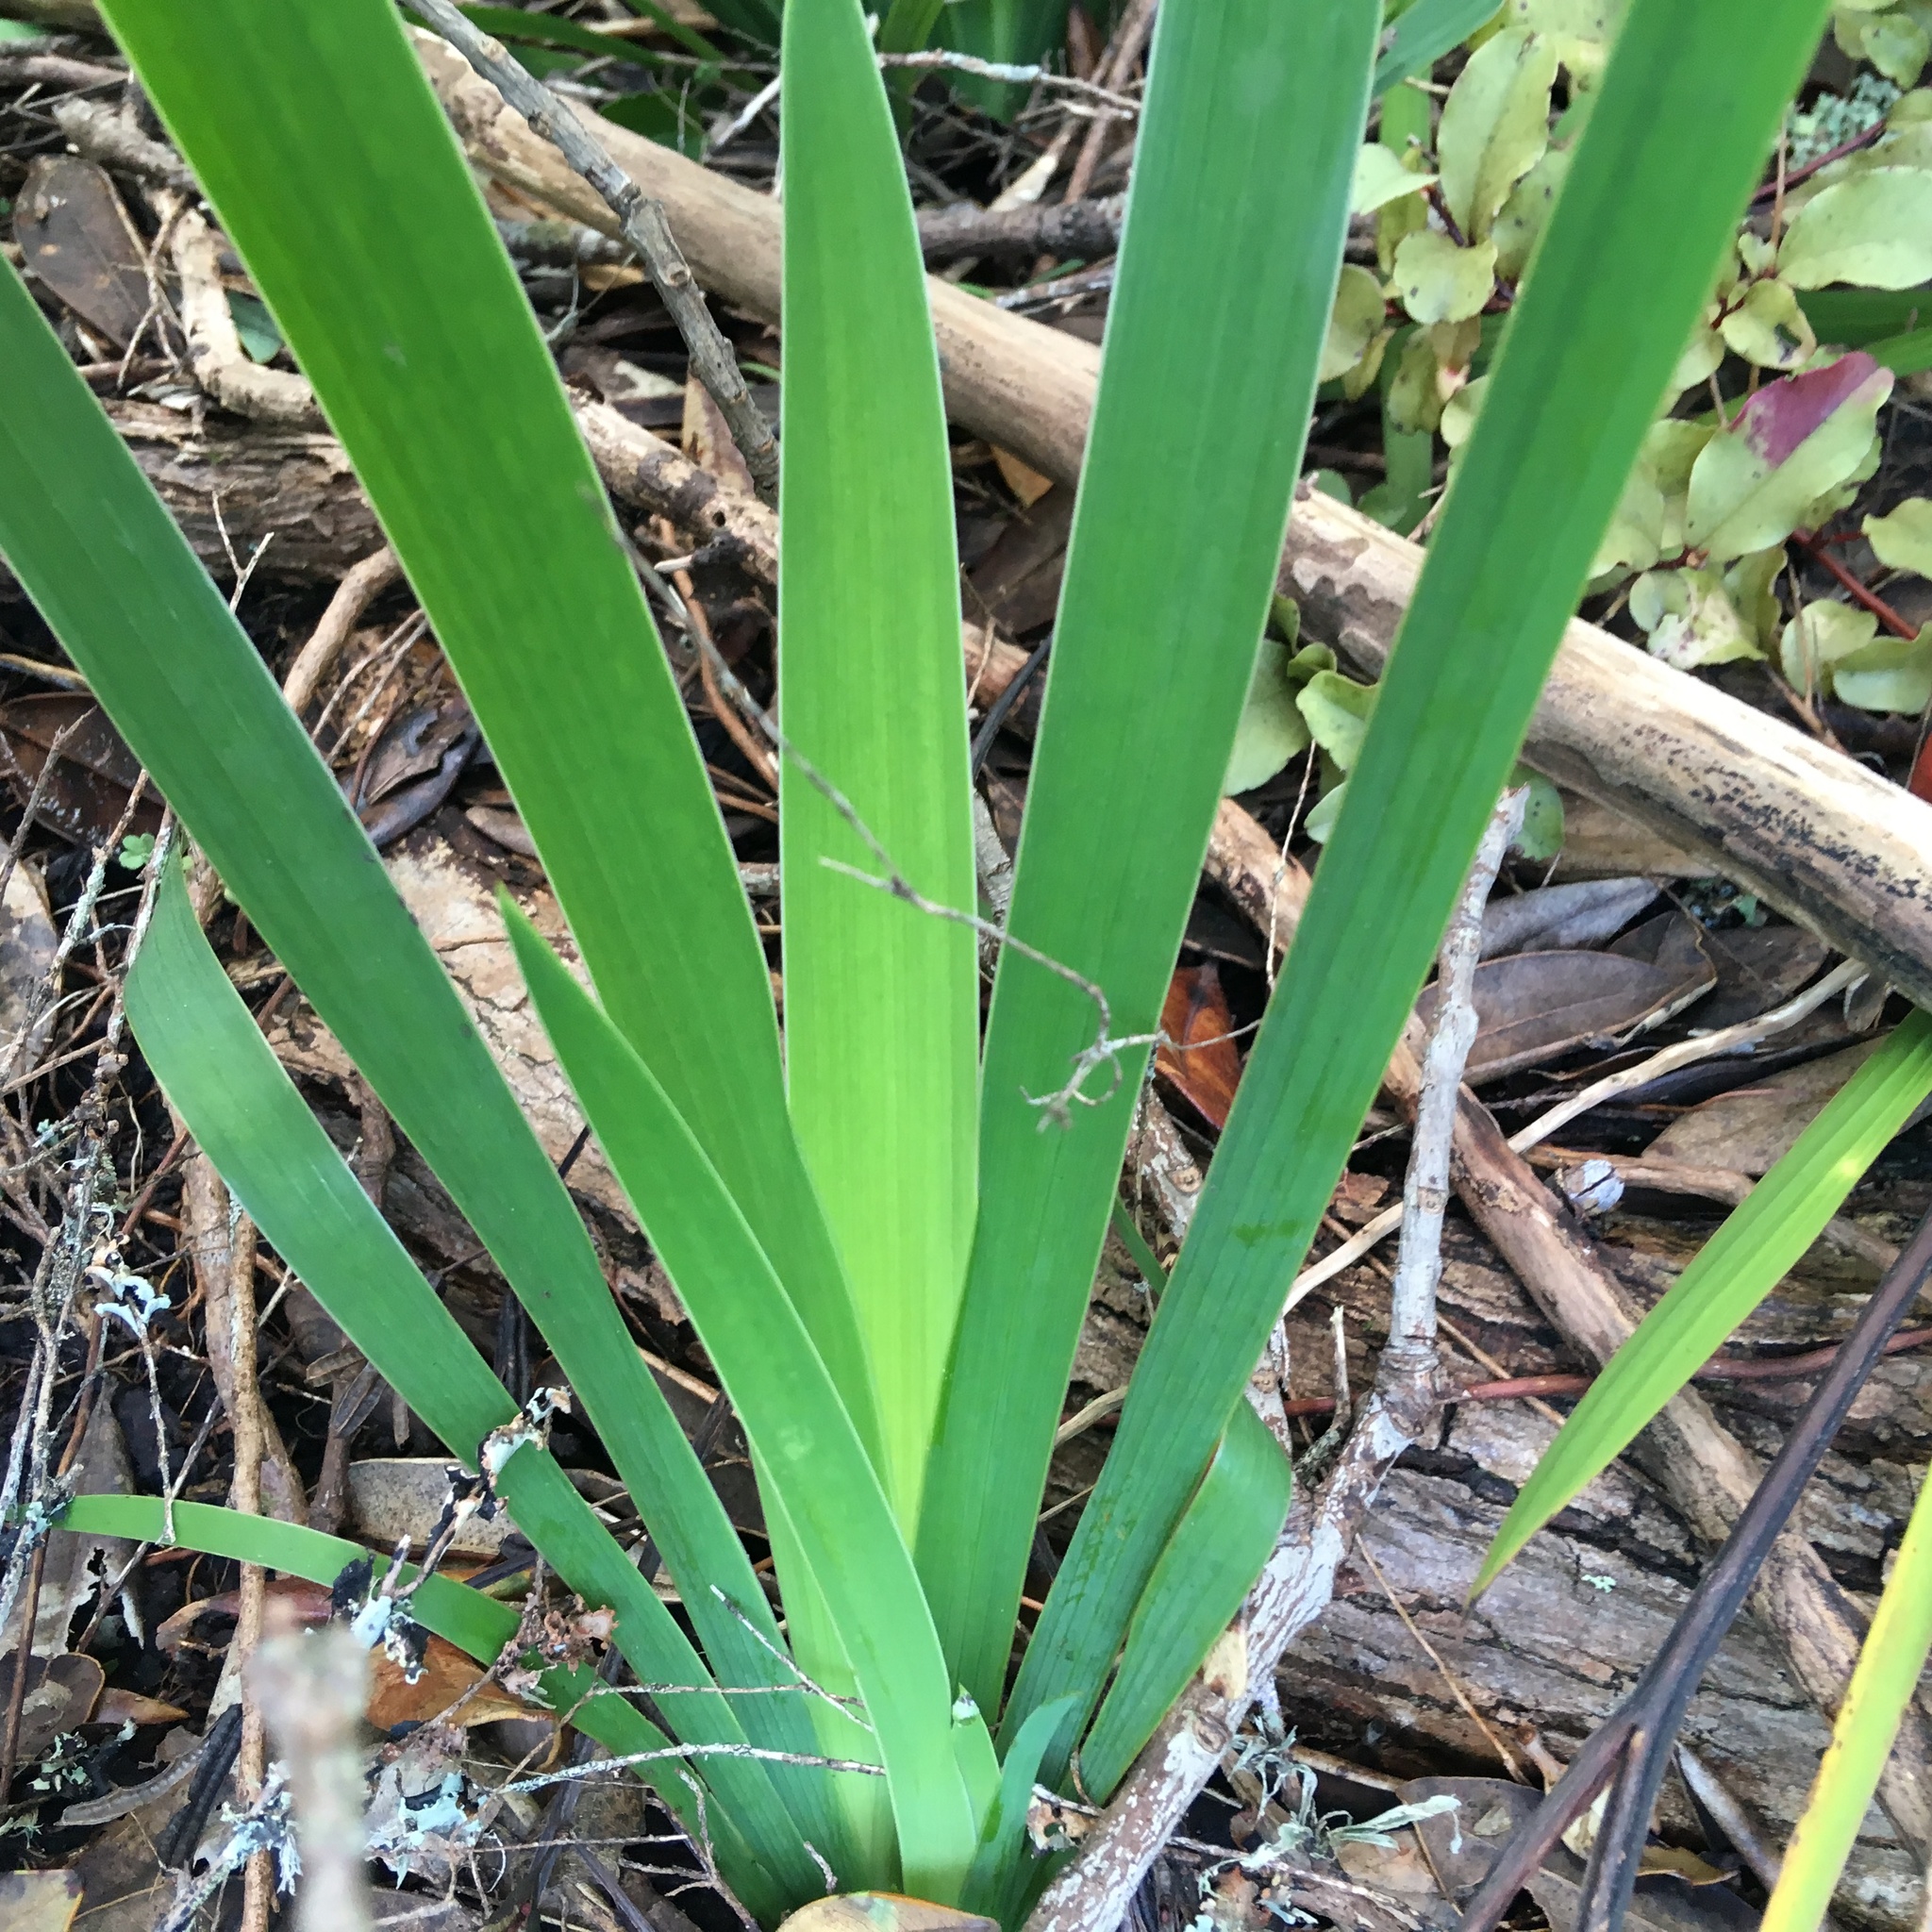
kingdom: Plantae
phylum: Tracheophyta
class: Liliopsida
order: Asparagales
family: Iridaceae
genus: Aristea
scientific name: Aristea ecklonii
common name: Blue corn-lily
